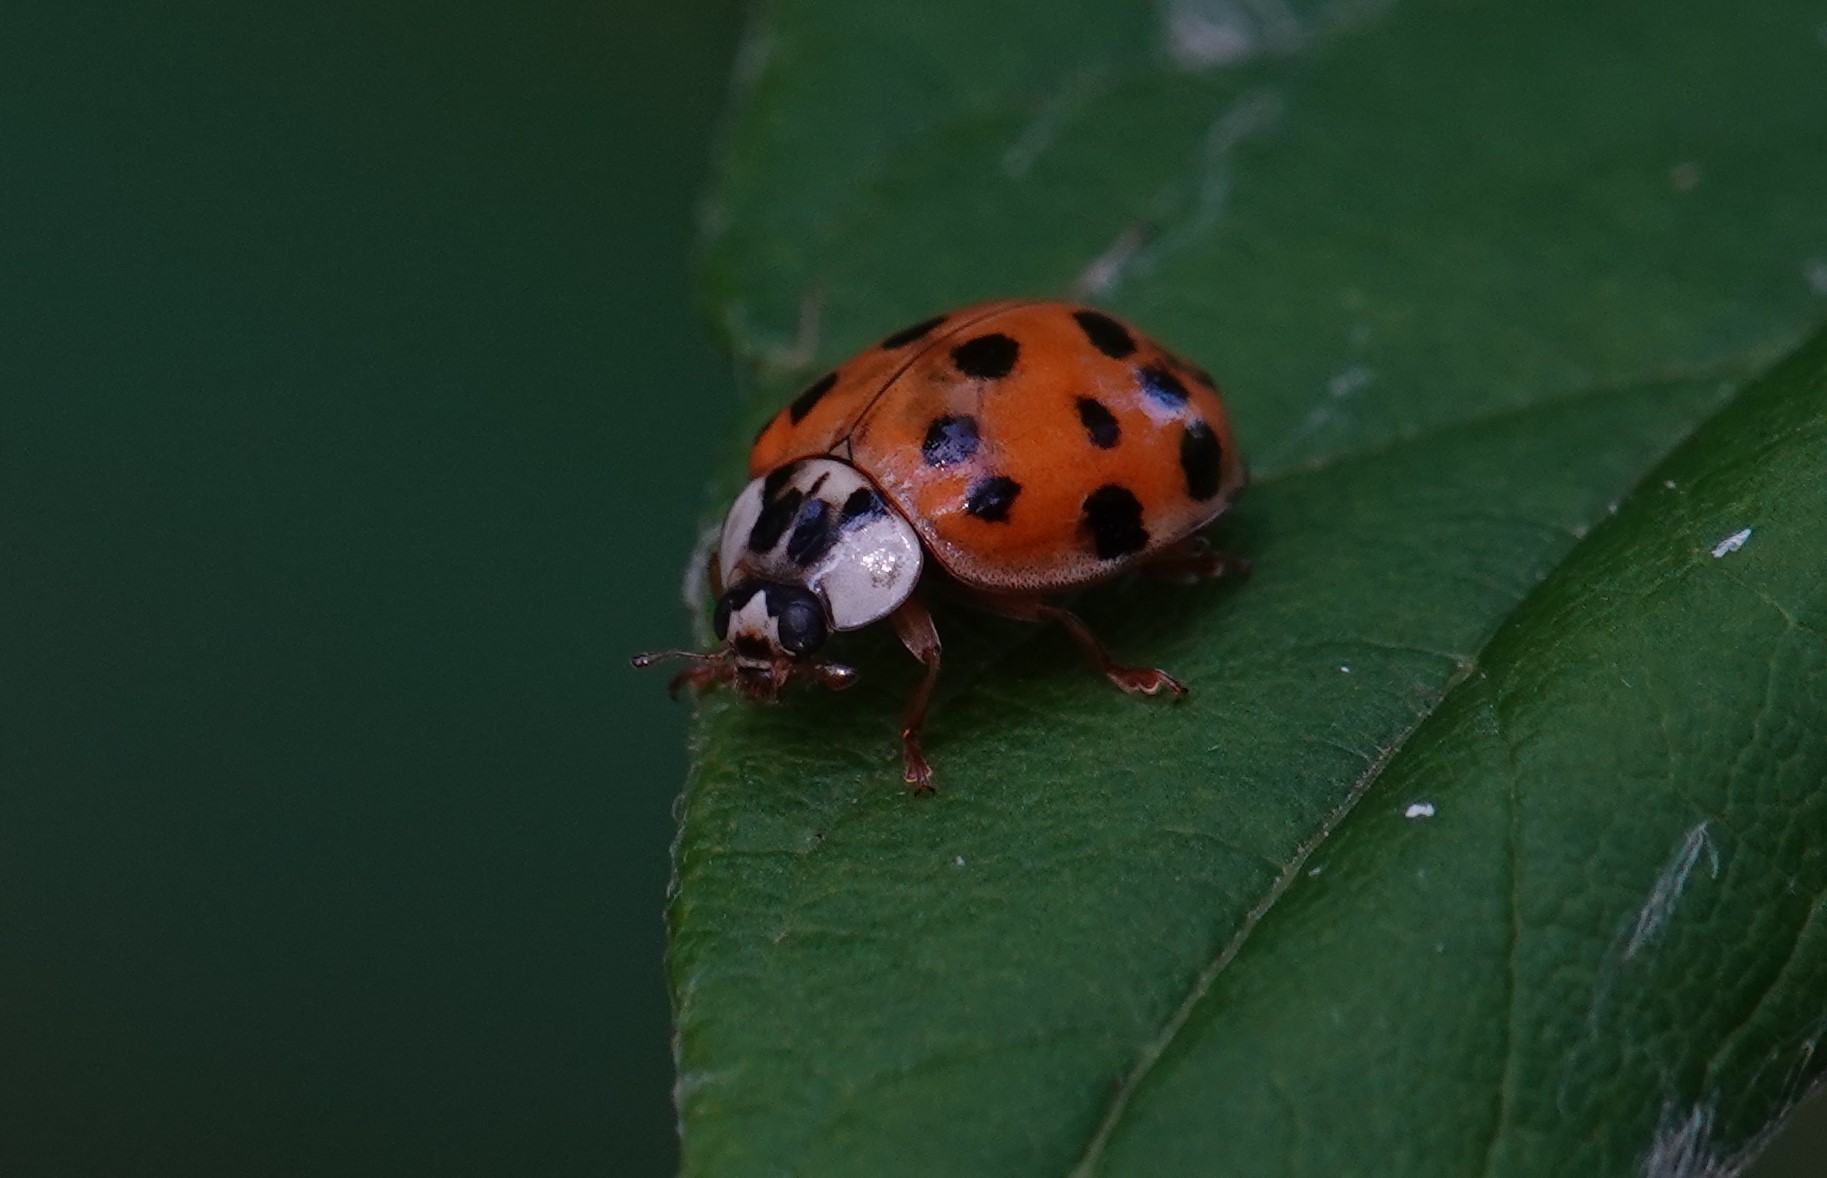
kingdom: Animalia
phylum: Arthropoda
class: Insecta
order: Coleoptera
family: Coccinellidae
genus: Harmonia
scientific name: Harmonia axyridis
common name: Harlequin ladybird
